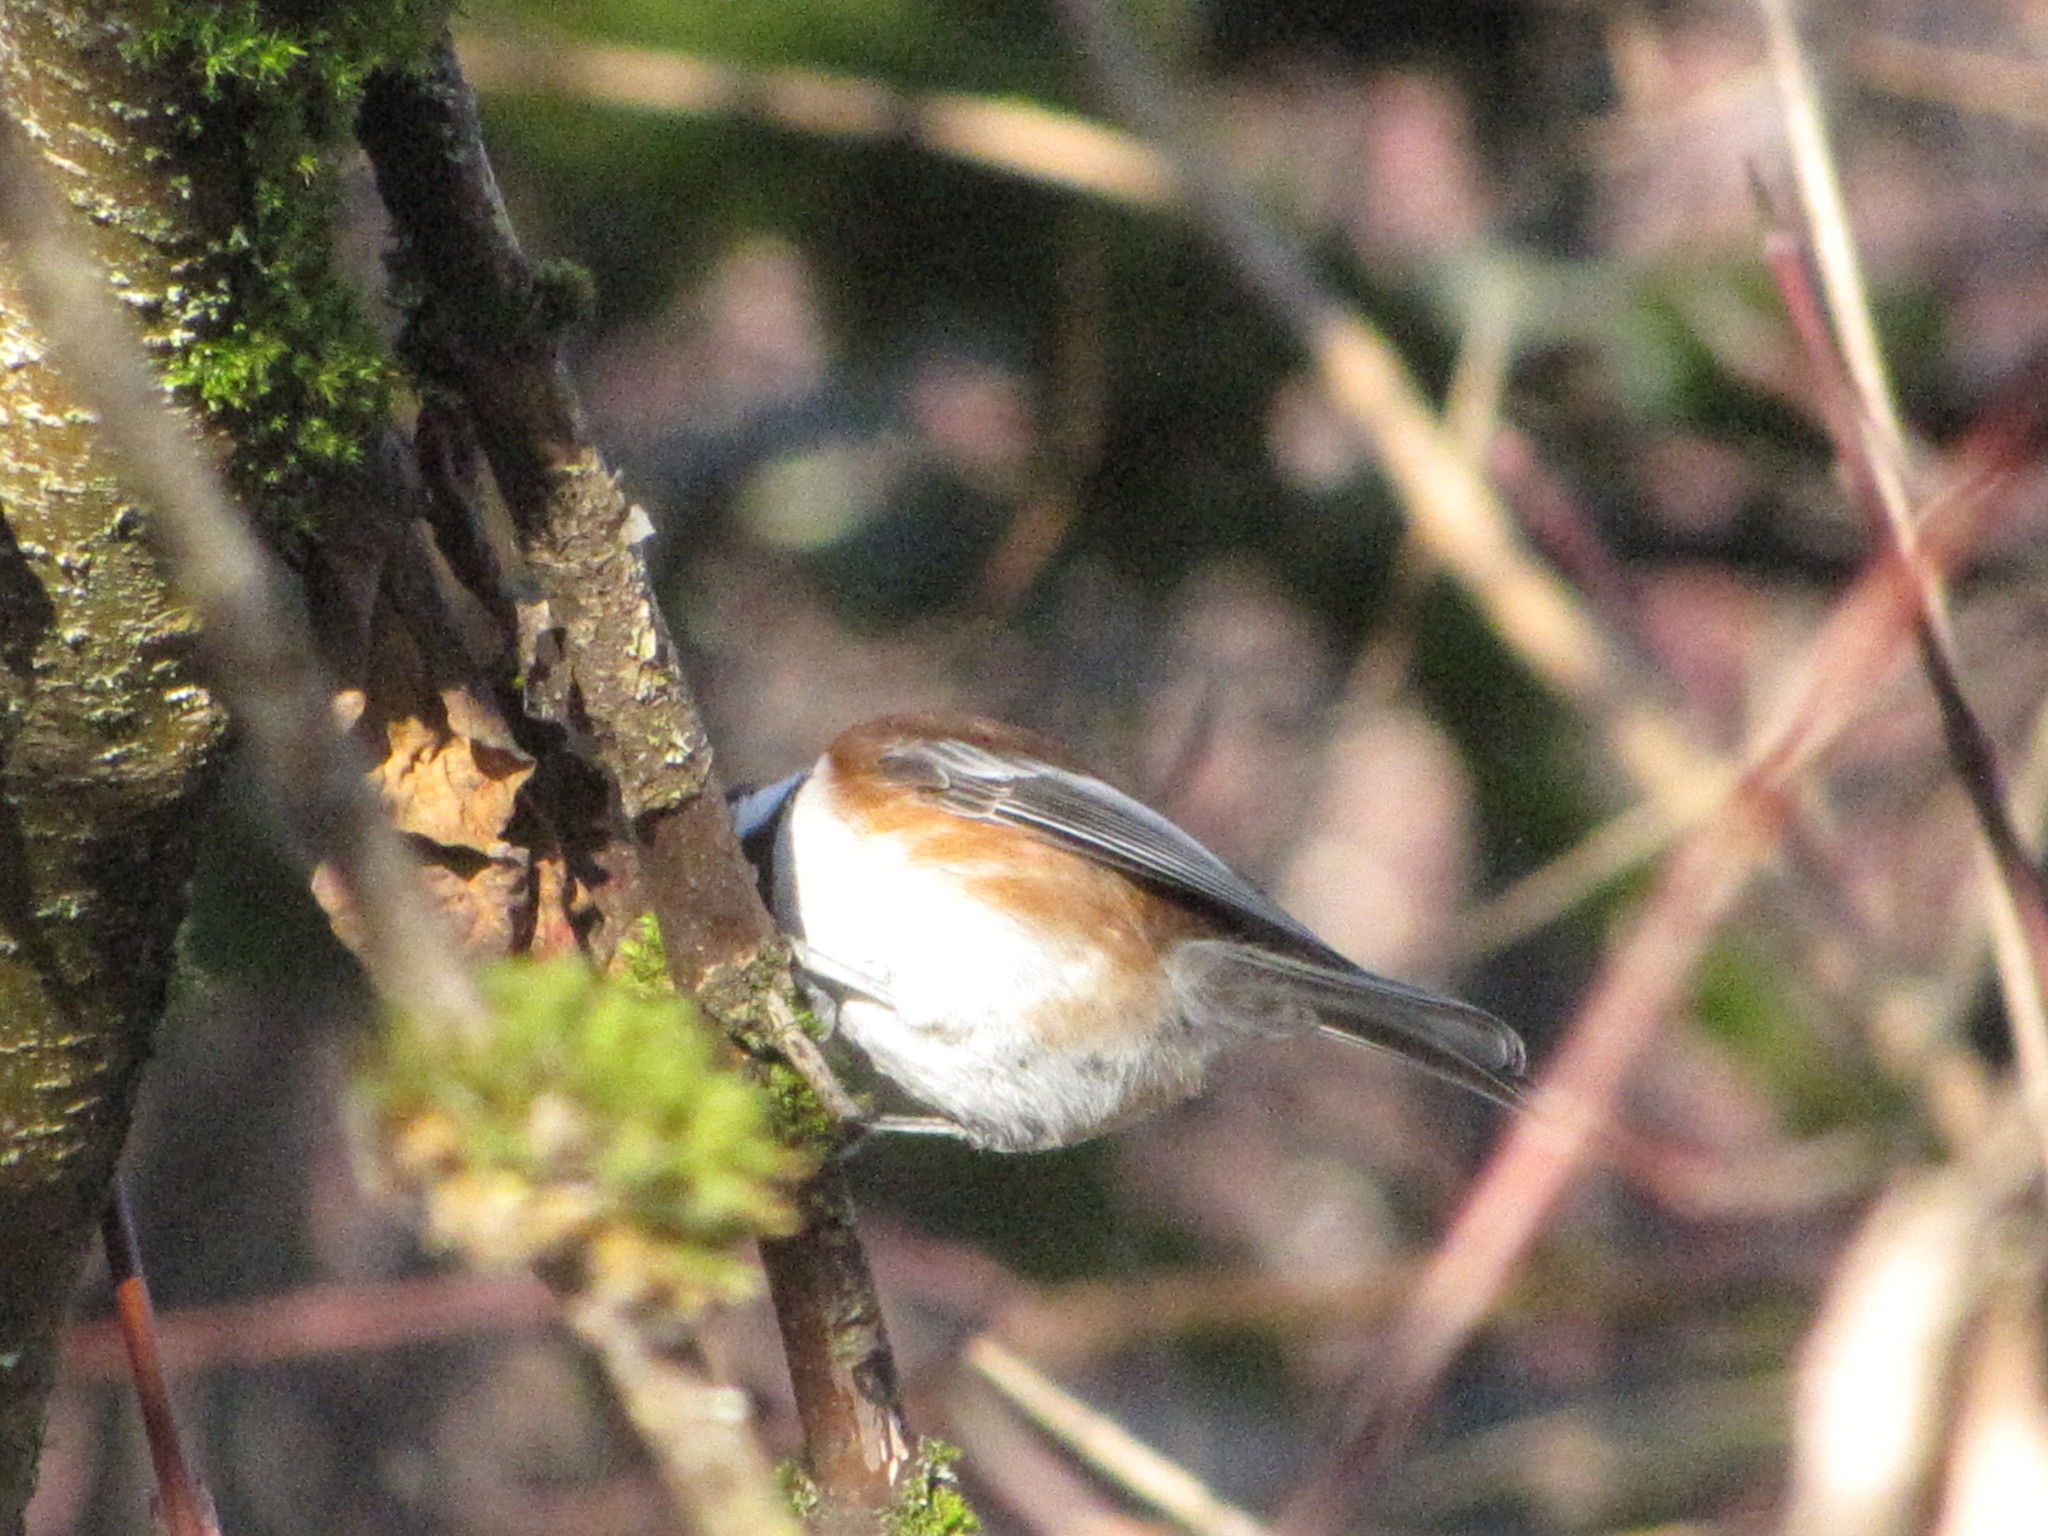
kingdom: Animalia
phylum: Chordata
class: Aves
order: Passeriformes
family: Paridae
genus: Poecile
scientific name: Poecile rufescens
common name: Chestnut-backed chickadee
